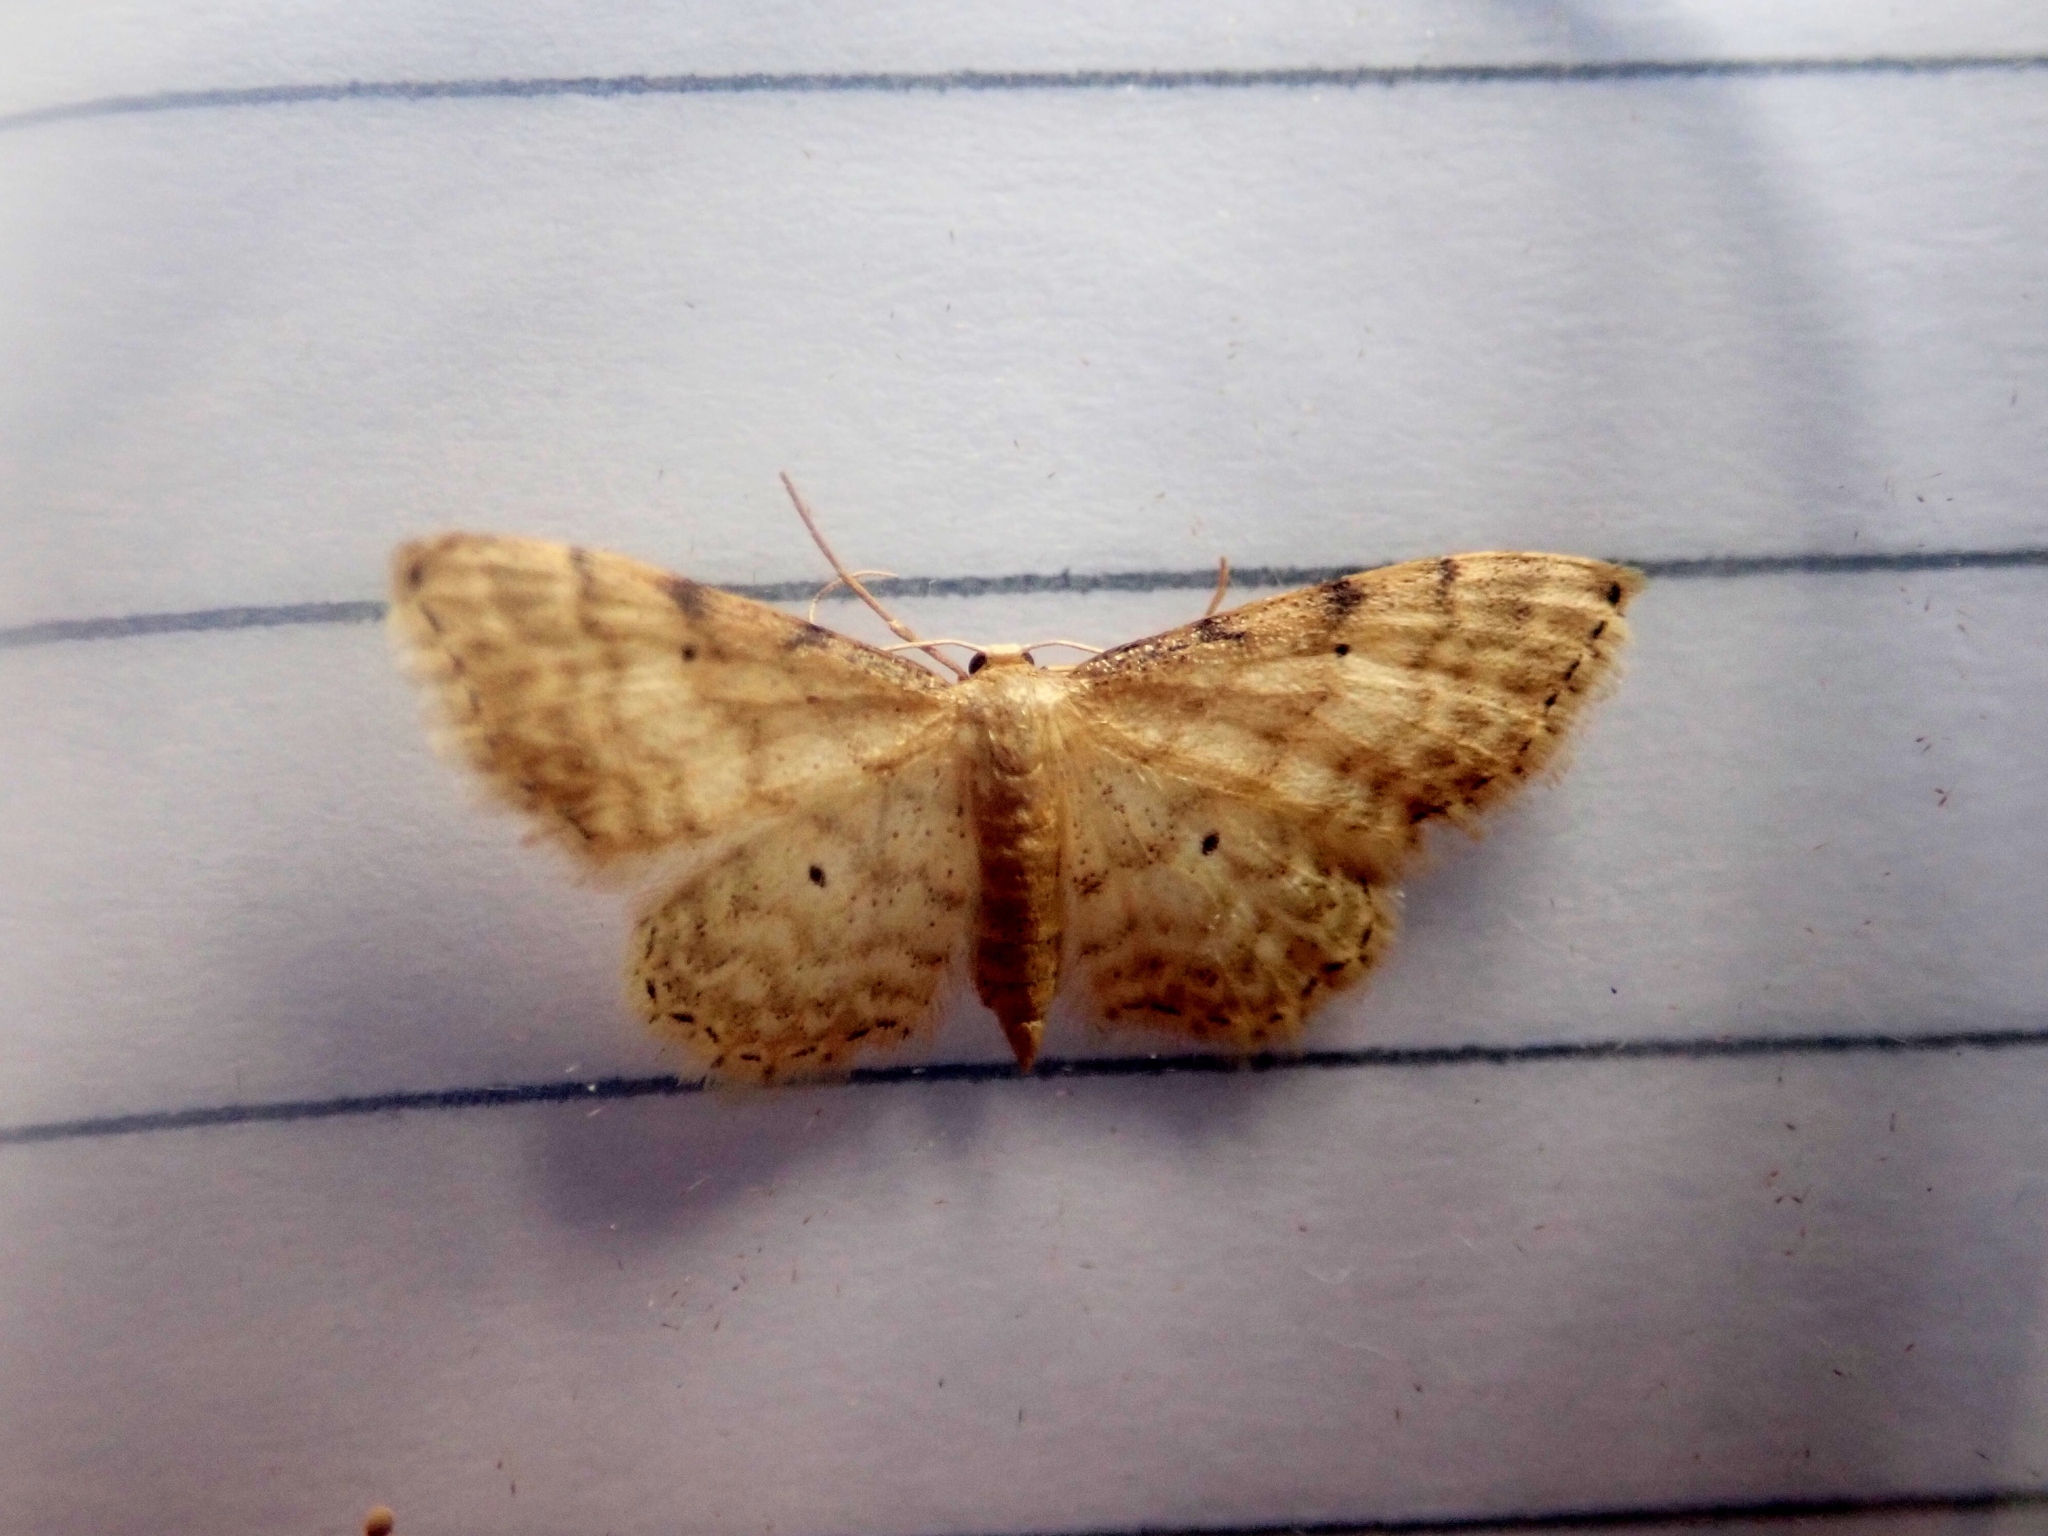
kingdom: Animalia
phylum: Arthropoda
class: Insecta
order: Lepidoptera
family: Geometridae
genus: Idaea
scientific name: Idaea fuscovenosa
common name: Dwarf cream wave
